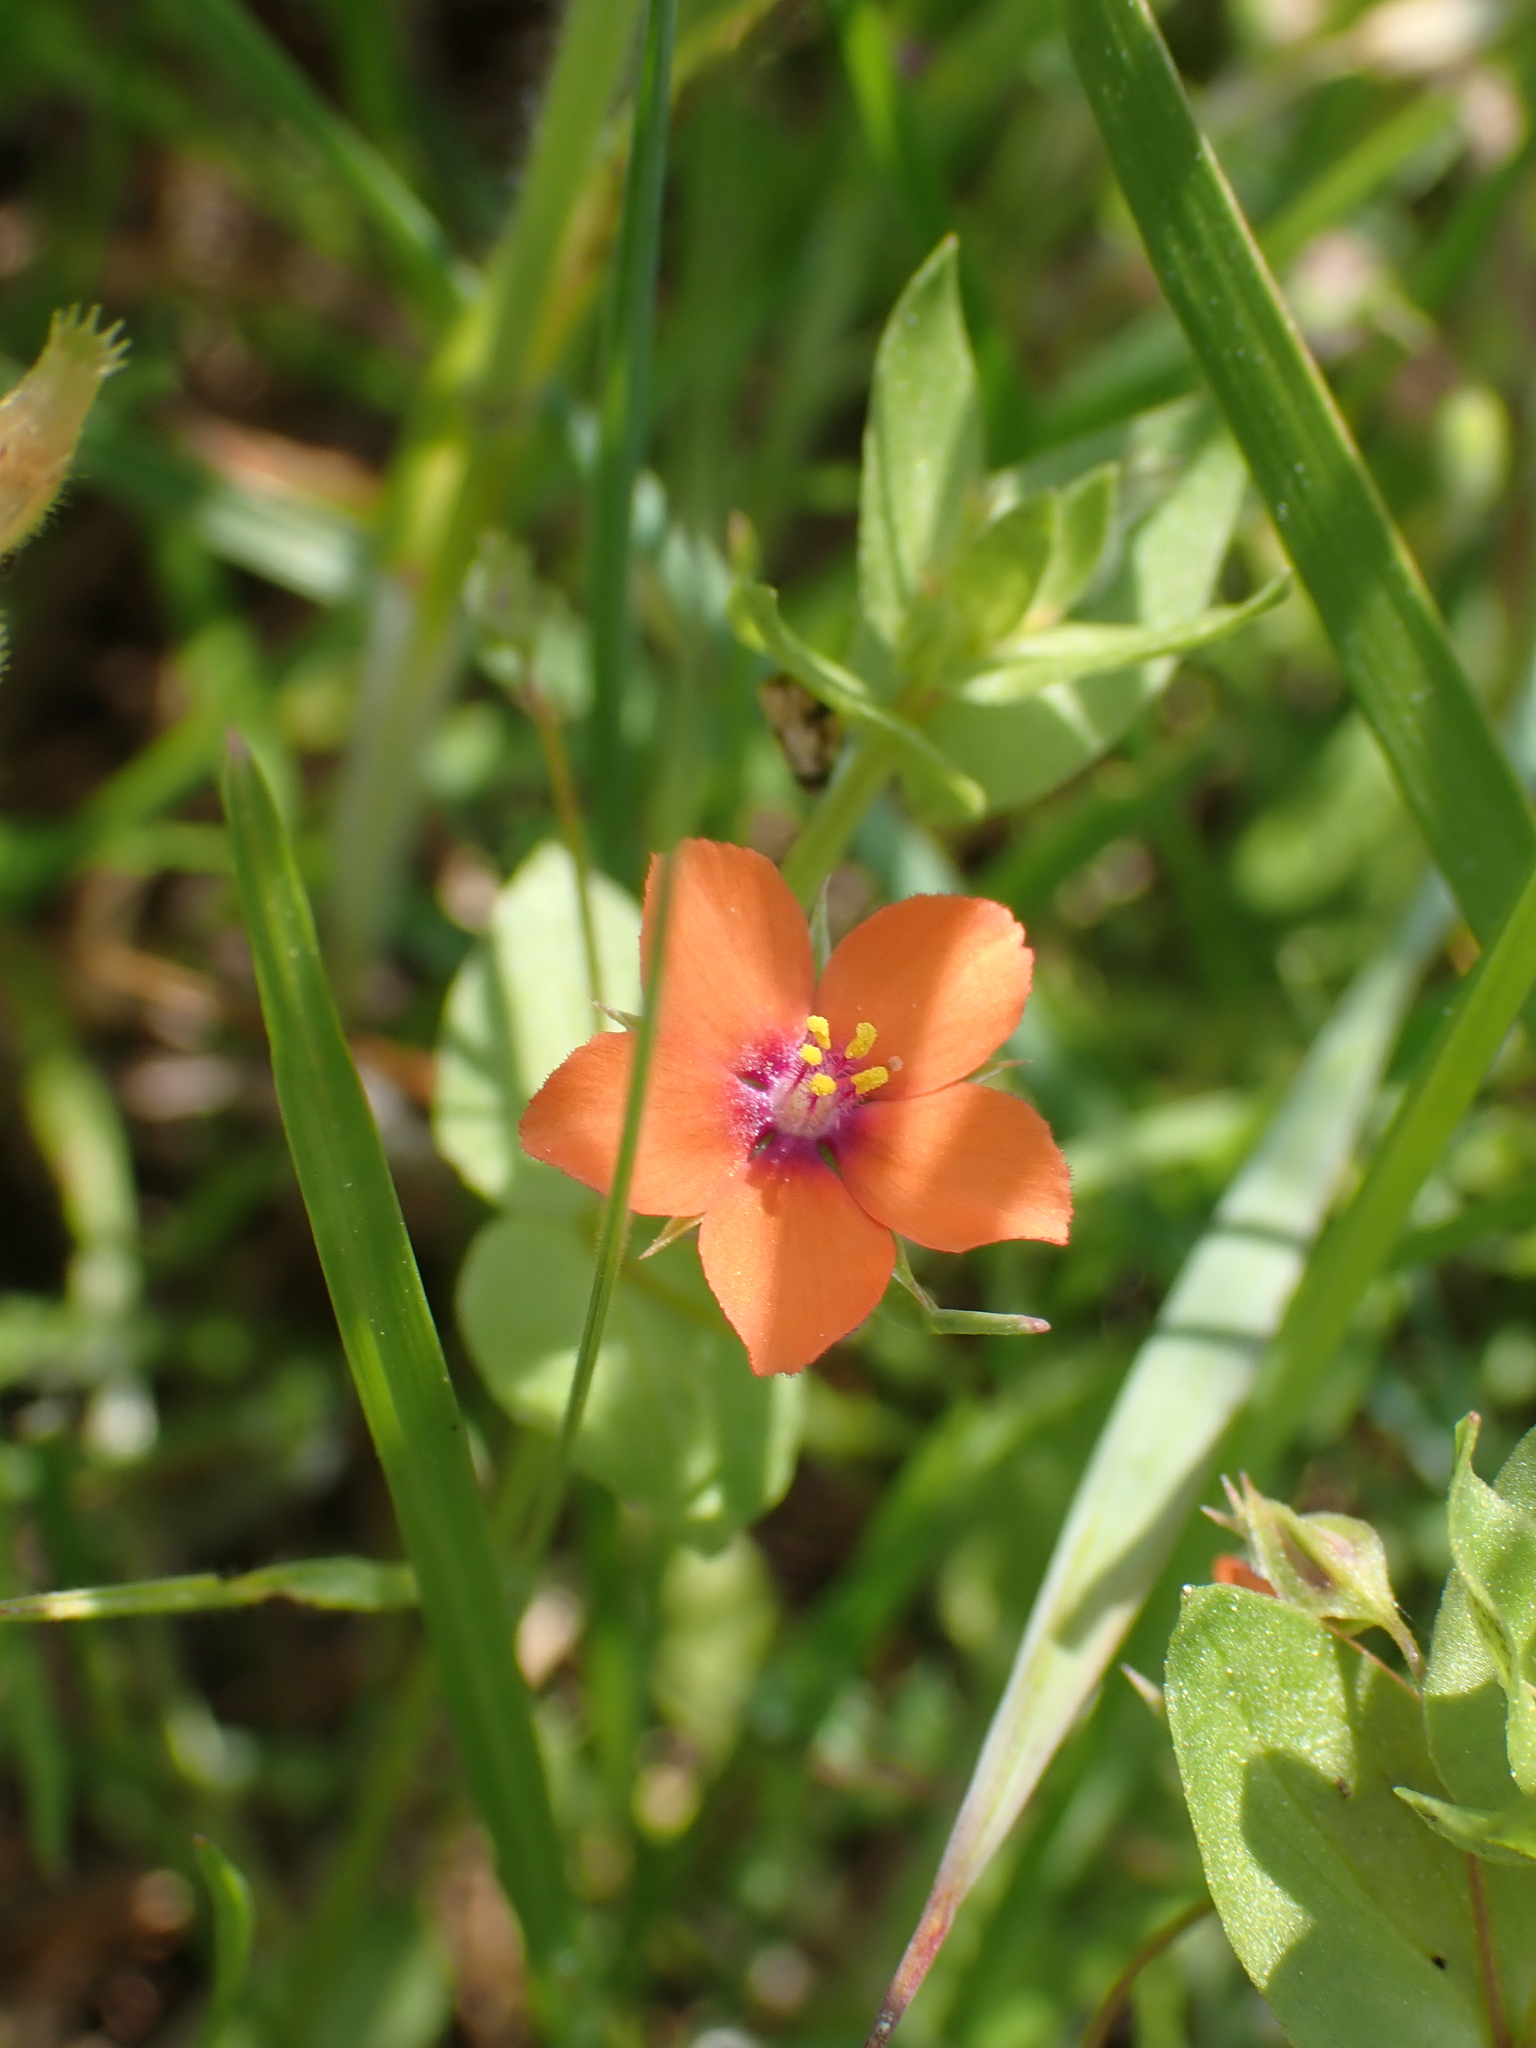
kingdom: Plantae
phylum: Tracheophyta
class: Magnoliopsida
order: Ericales
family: Primulaceae
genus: Lysimachia
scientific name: Lysimachia arvensis
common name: Scarlet pimpernel
